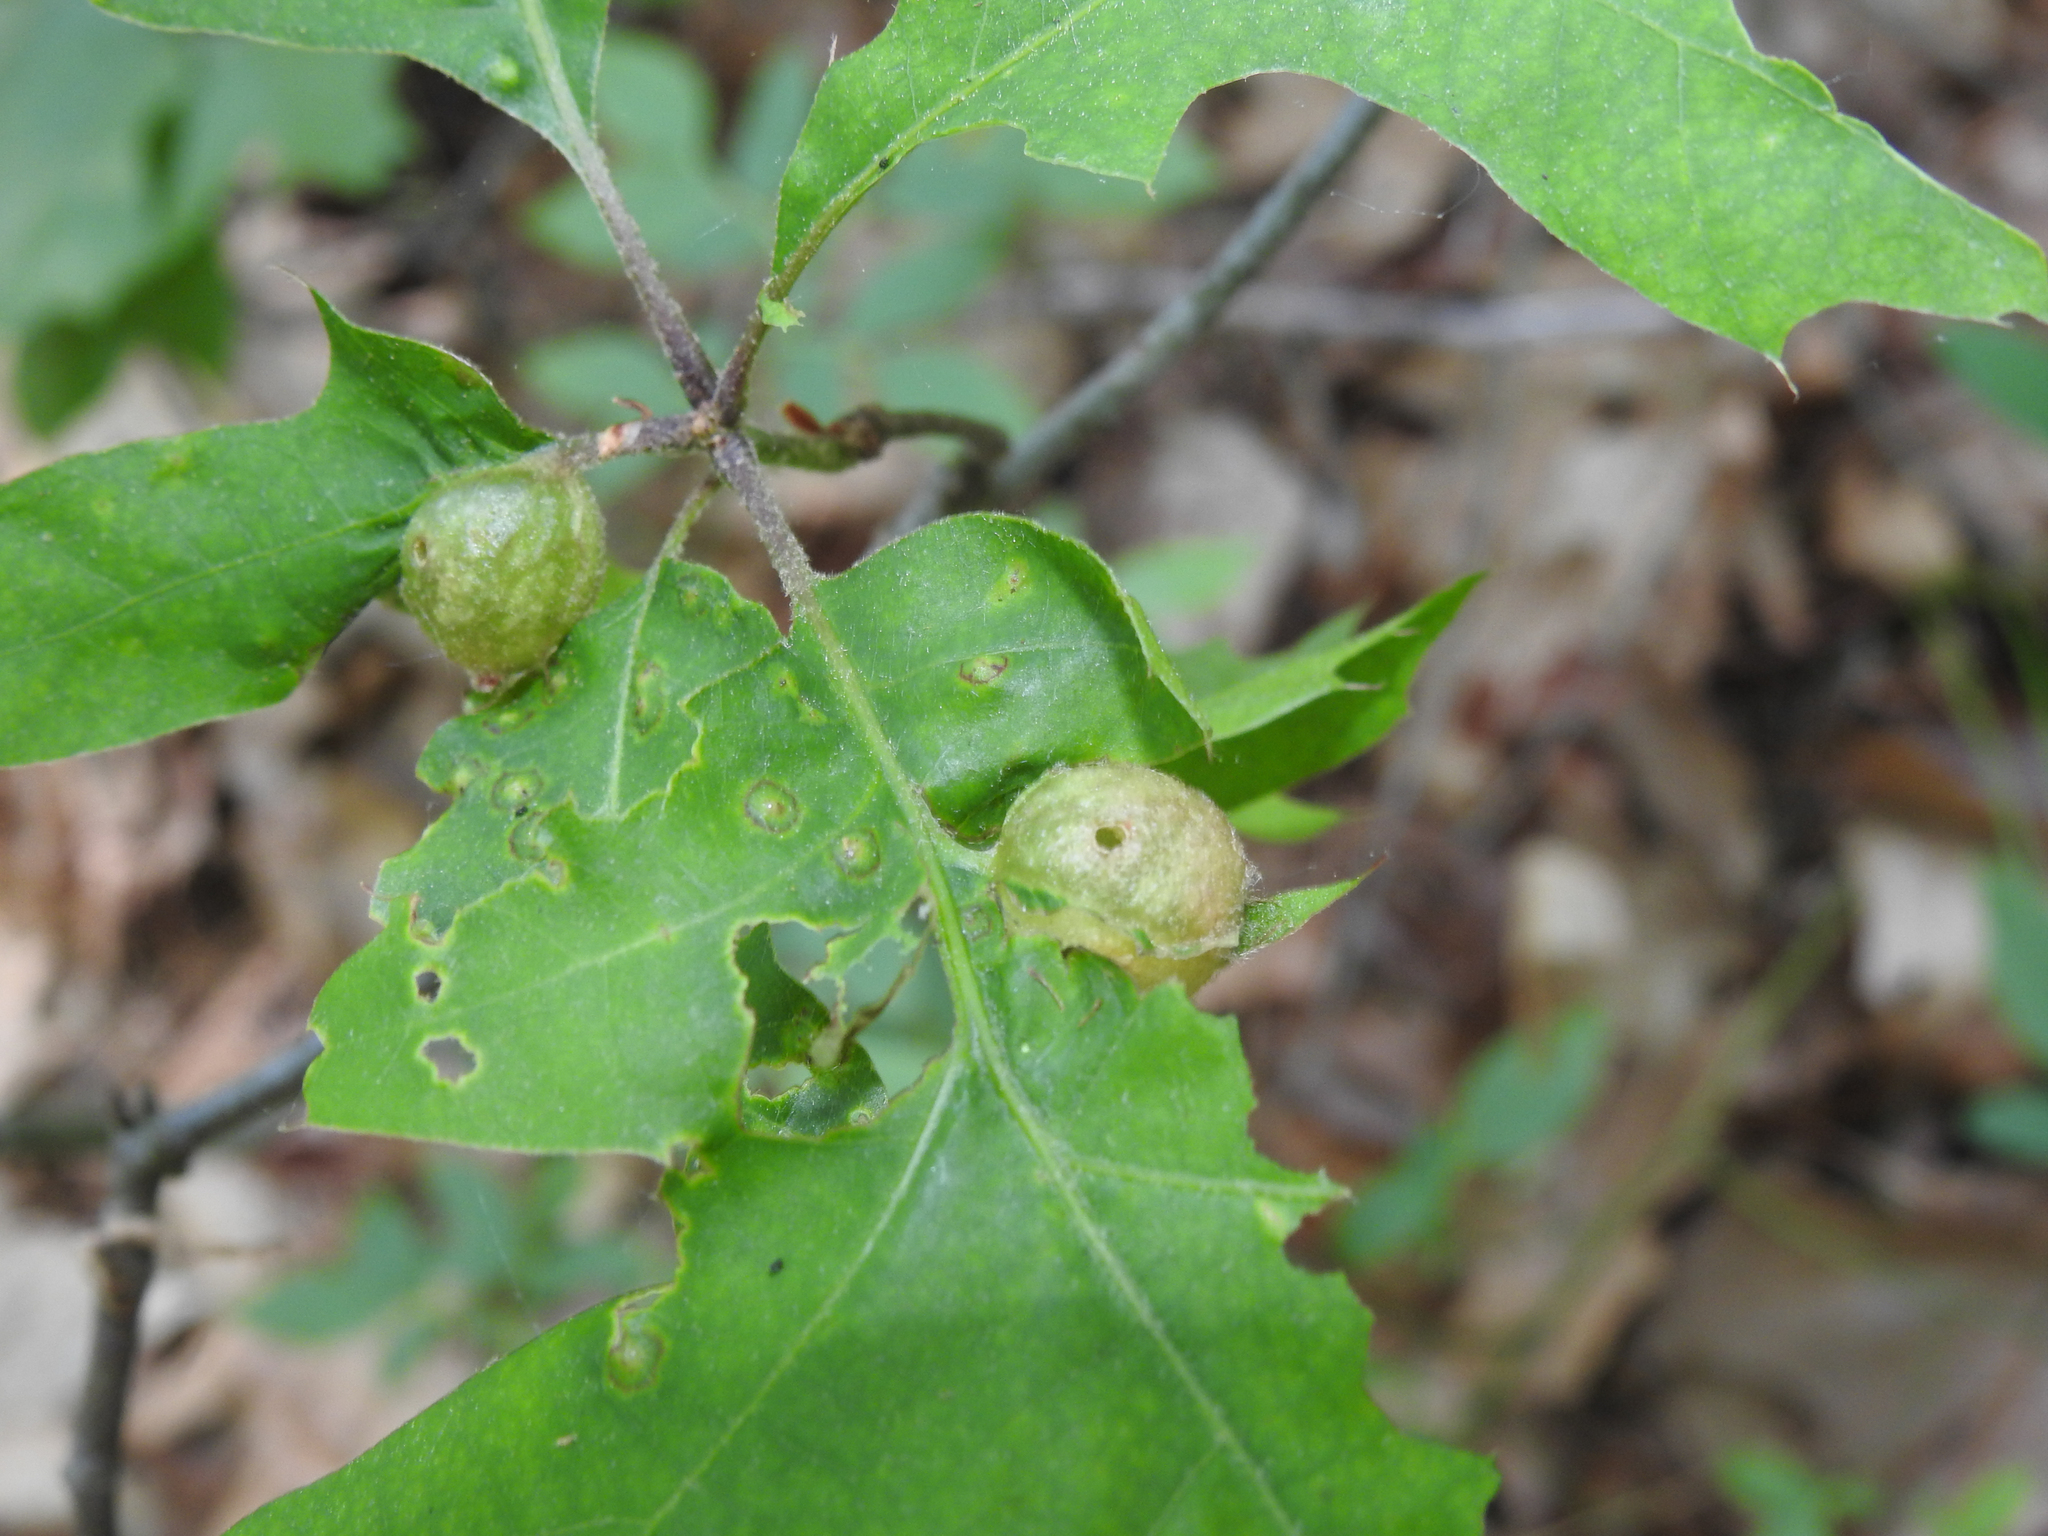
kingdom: Animalia
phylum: Arthropoda
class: Insecta
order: Hymenoptera
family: Cynipidae
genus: Dryocosmus
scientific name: Dryocosmus quercuspalustris
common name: Succulent oak gall wasp
